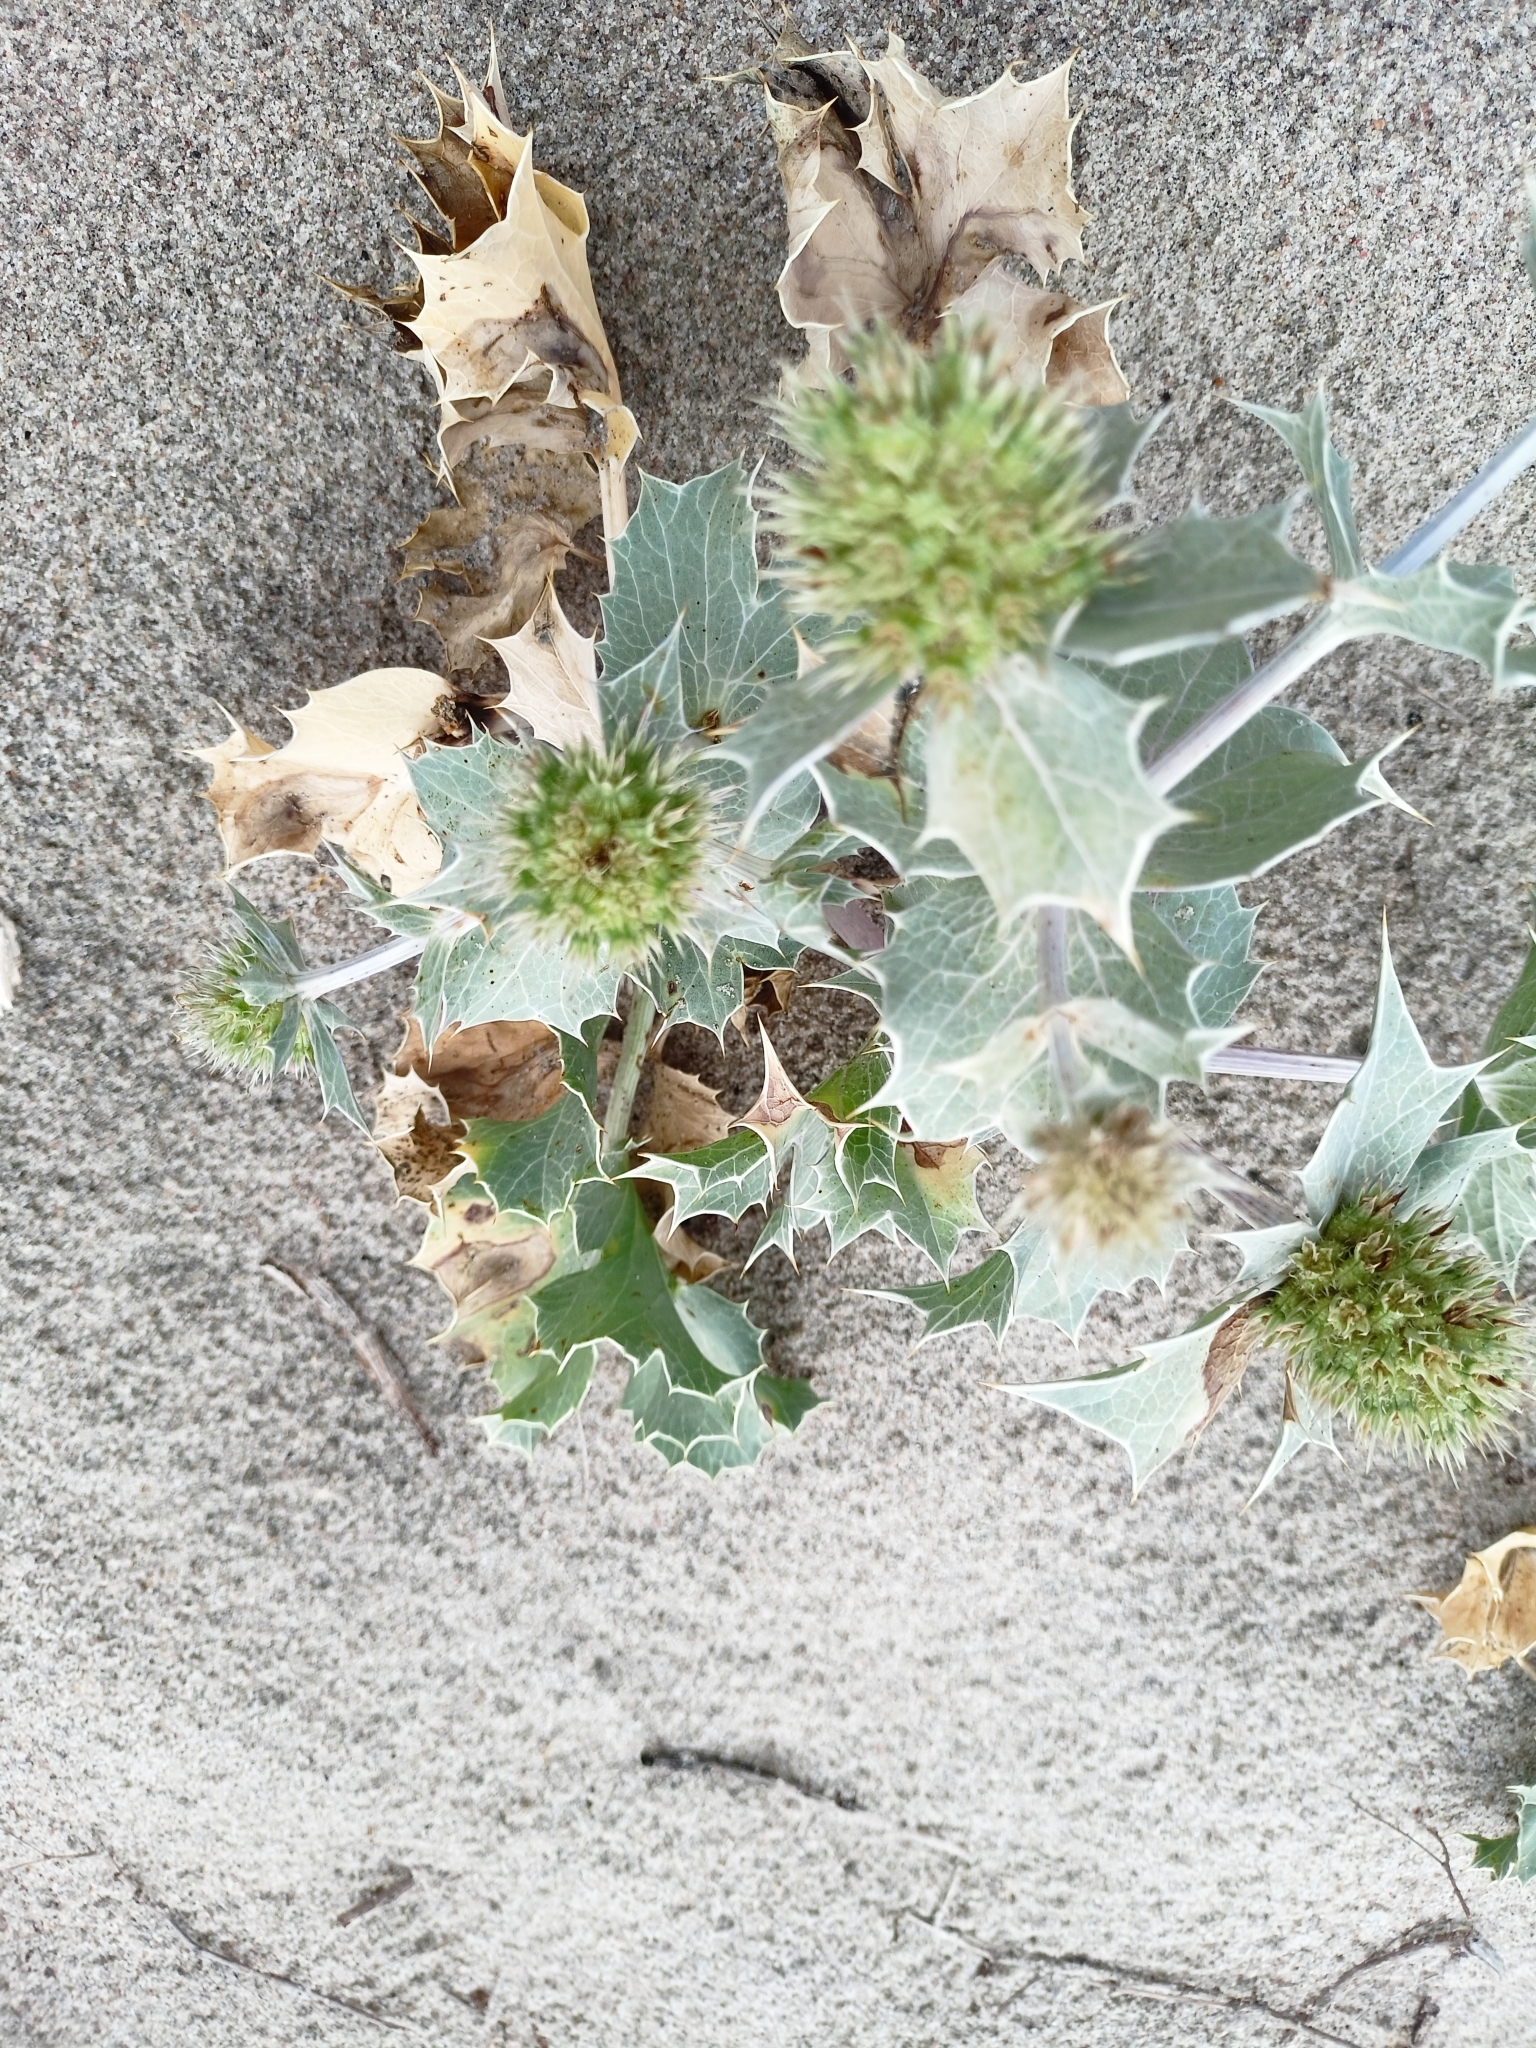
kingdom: Plantae
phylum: Tracheophyta
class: Magnoliopsida
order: Apiales
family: Apiaceae
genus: Eryngium
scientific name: Eryngium maritimum
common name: Sea-holly
